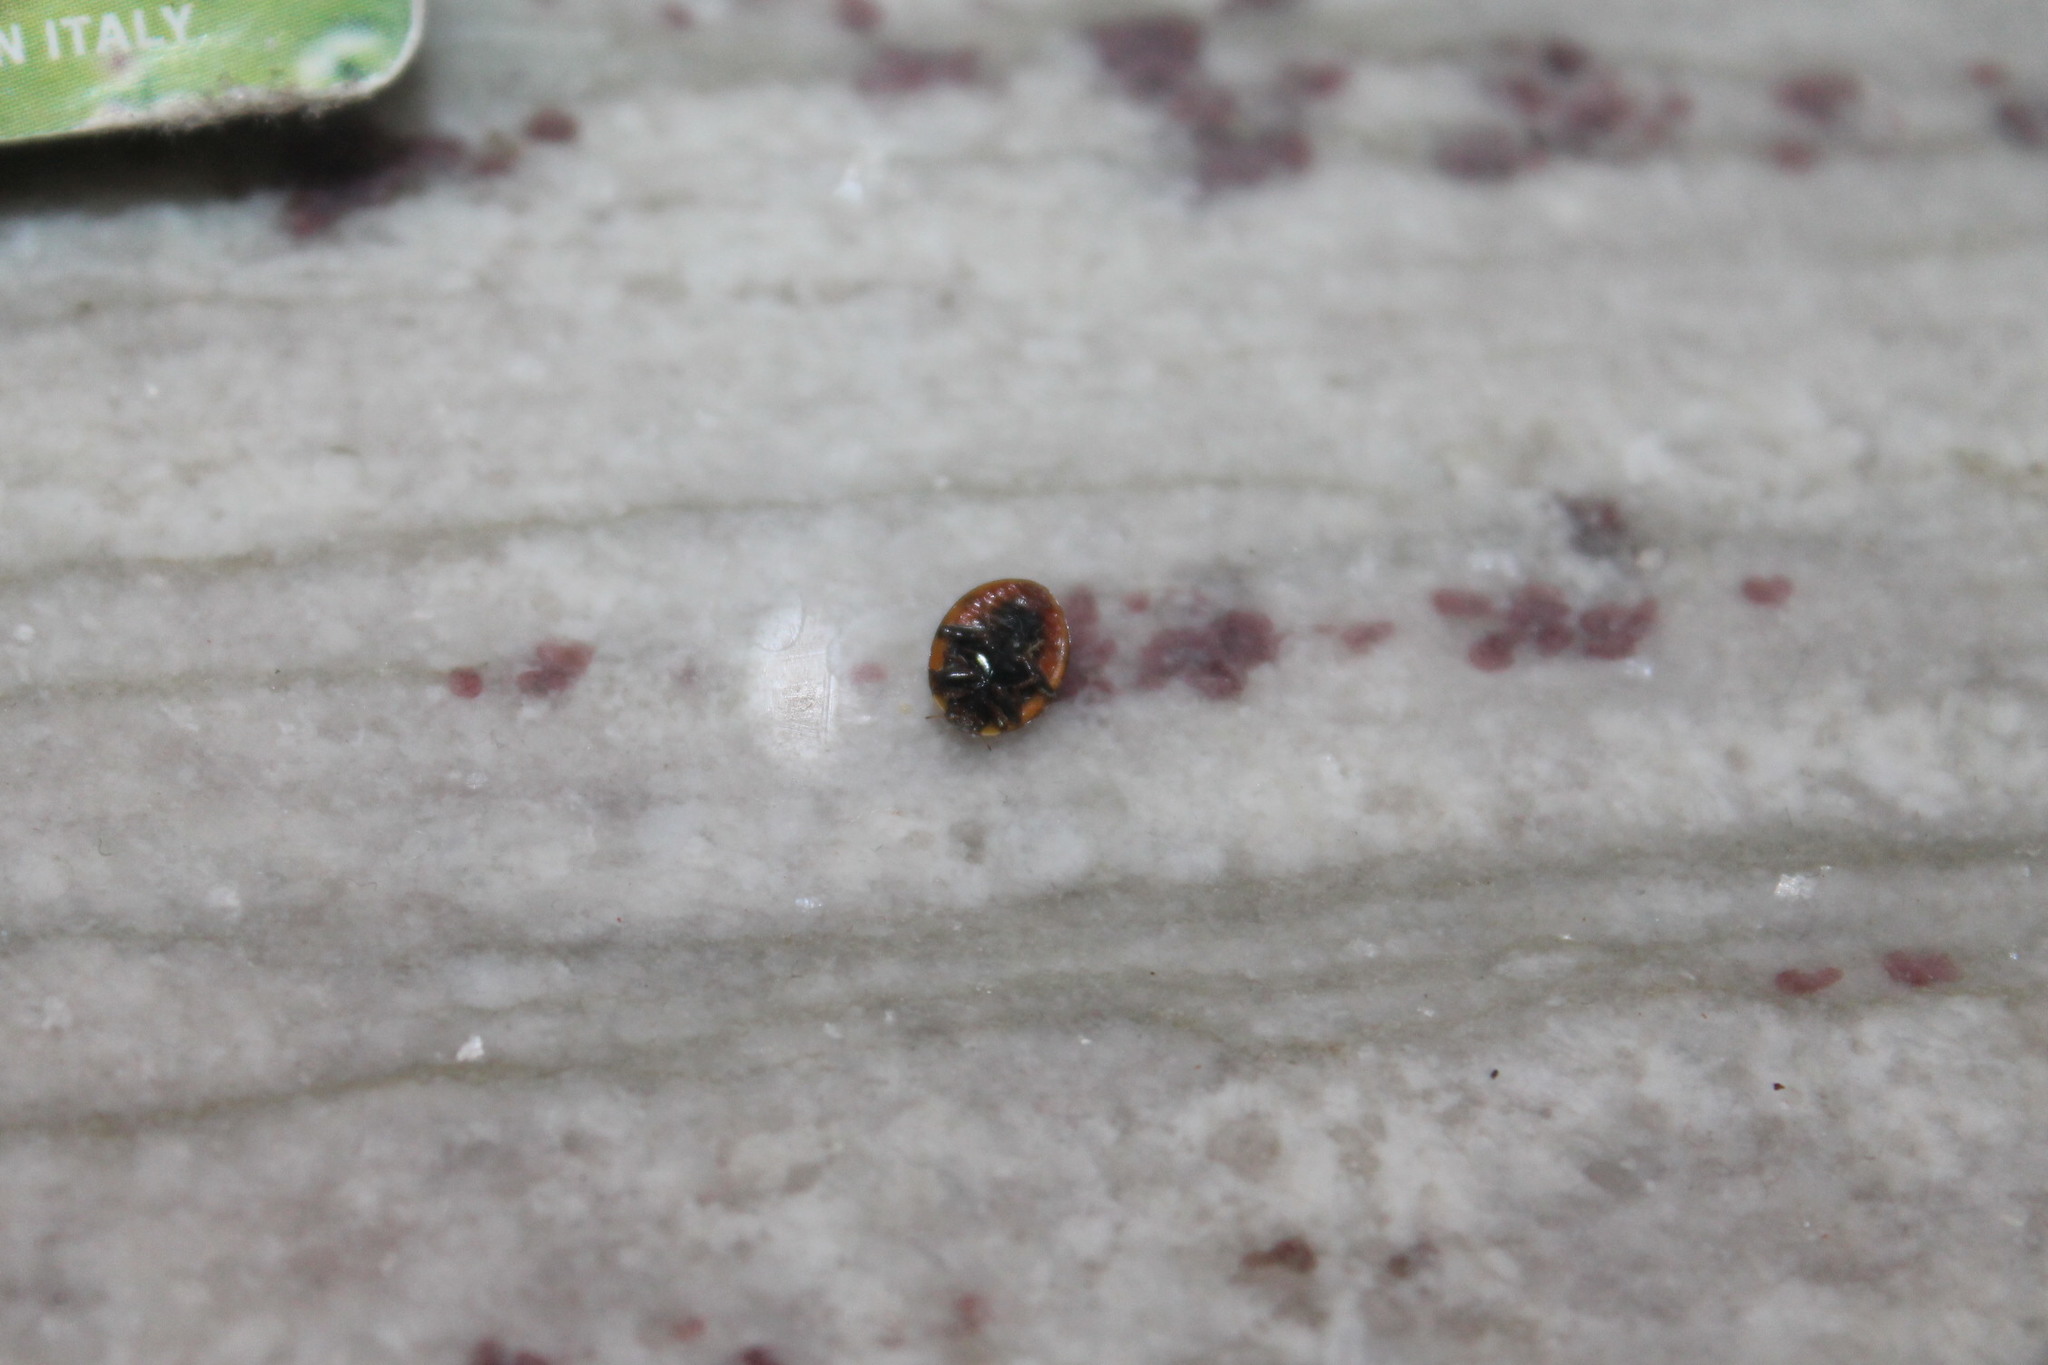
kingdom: Animalia
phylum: Arthropoda
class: Insecta
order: Coleoptera
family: Coccinellidae
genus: Harmonia
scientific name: Harmonia axyridis
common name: Harlequin ladybird
